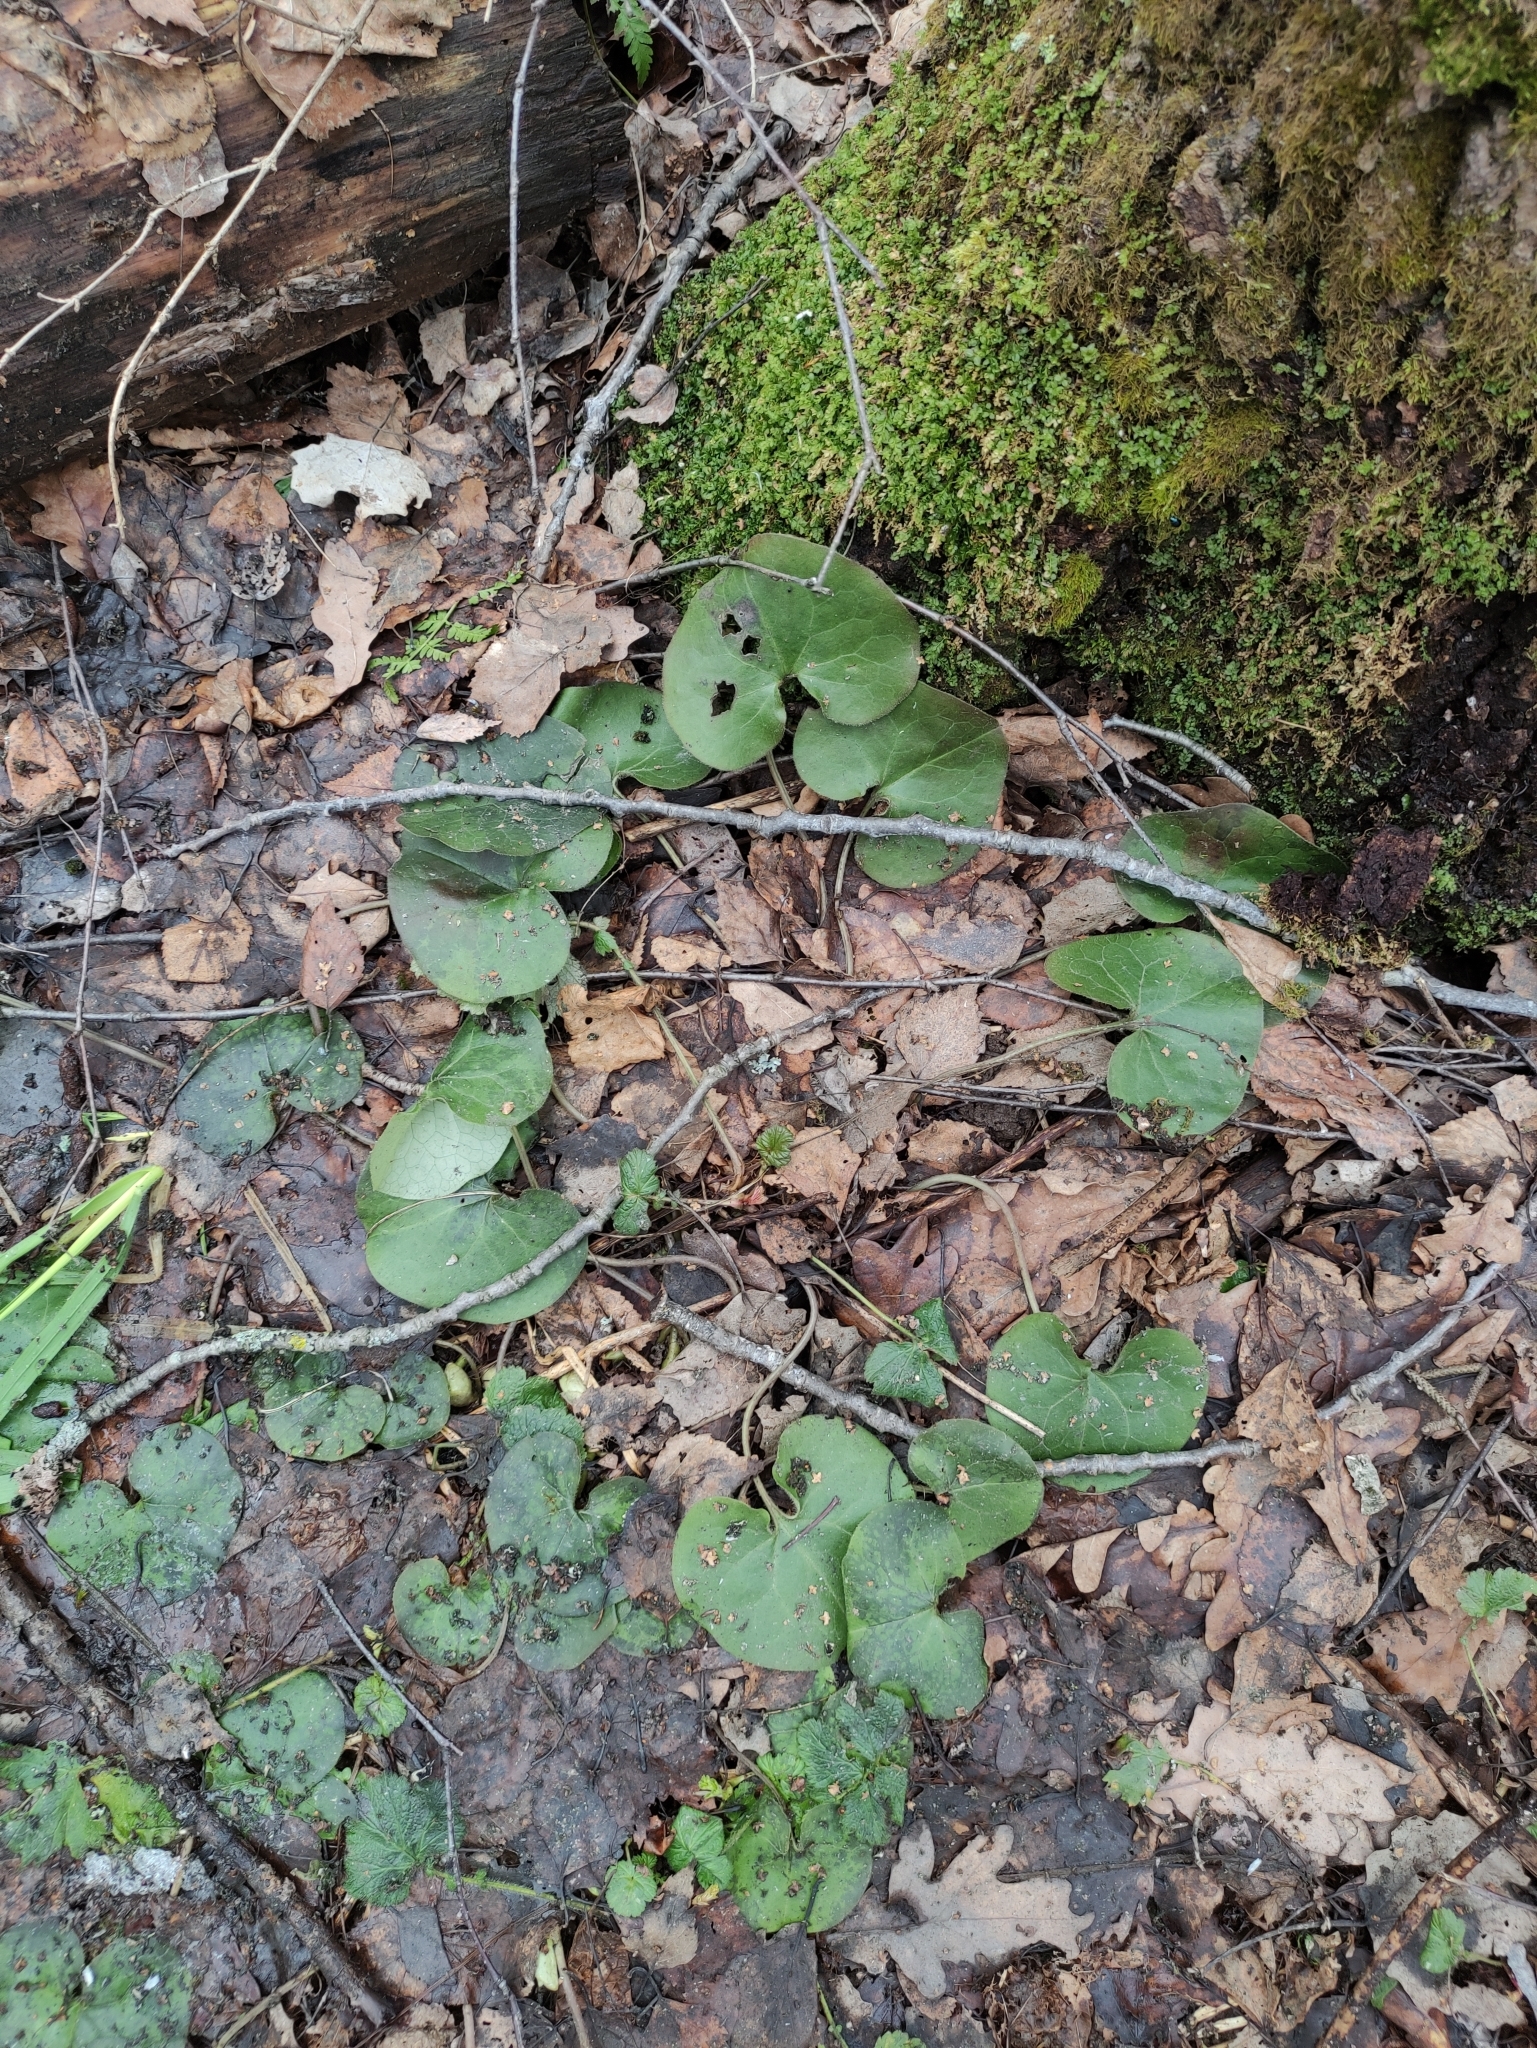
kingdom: Plantae
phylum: Tracheophyta
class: Magnoliopsida
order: Piperales
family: Aristolochiaceae
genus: Asarum
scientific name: Asarum europaeum
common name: Asarabacca
